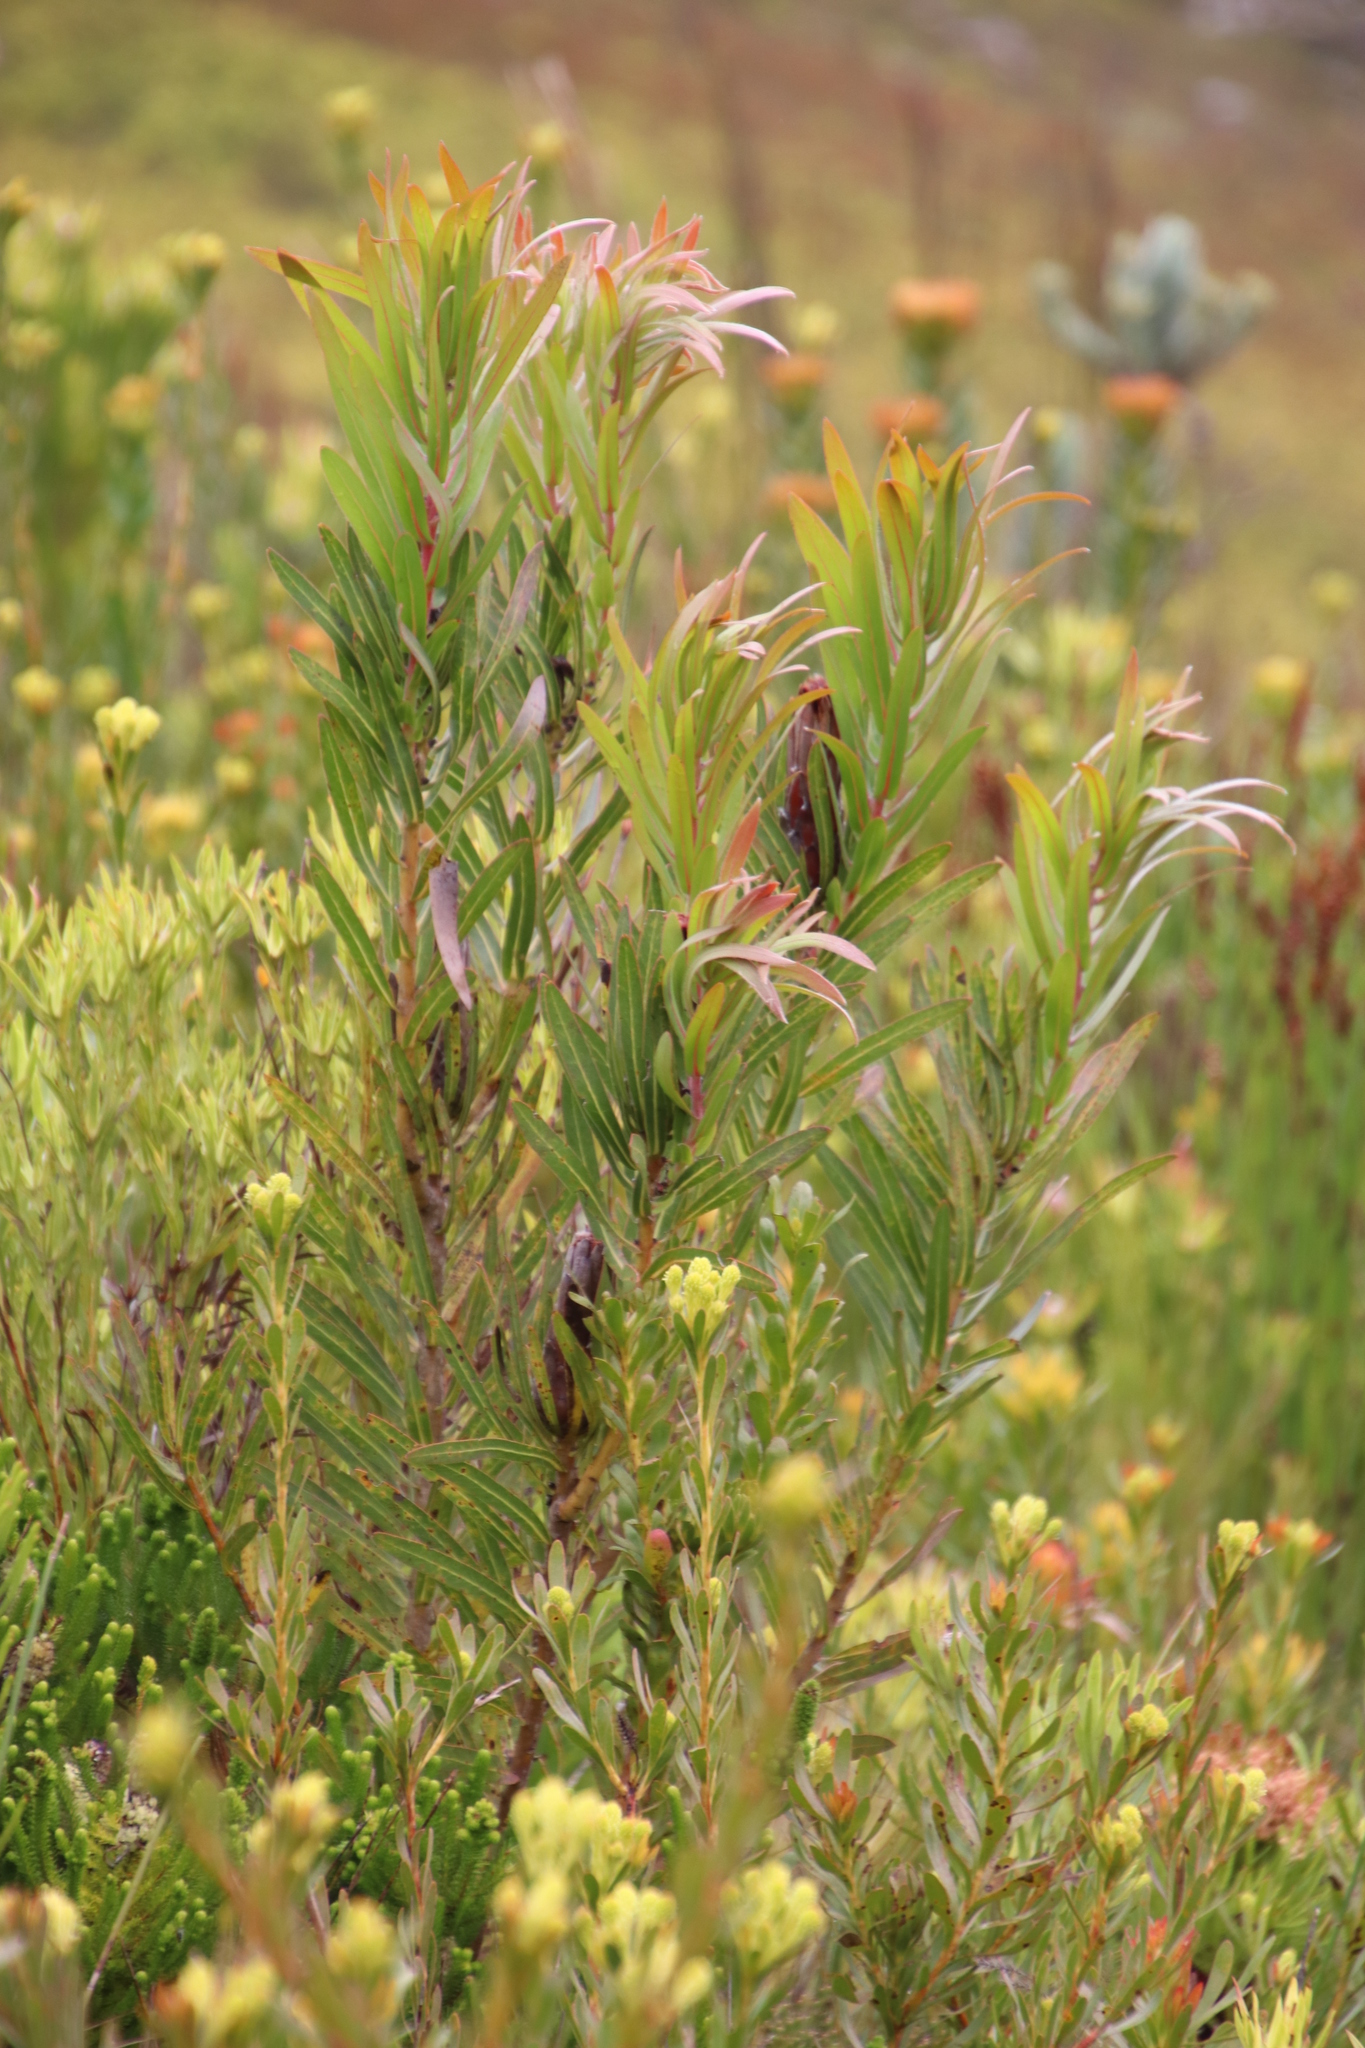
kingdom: Plantae
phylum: Tracheophyta
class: Magnoliopsida
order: Proteales
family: Proteaceae
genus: Protea
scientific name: Protea lepidocarpodendron
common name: Black-bearded protea
